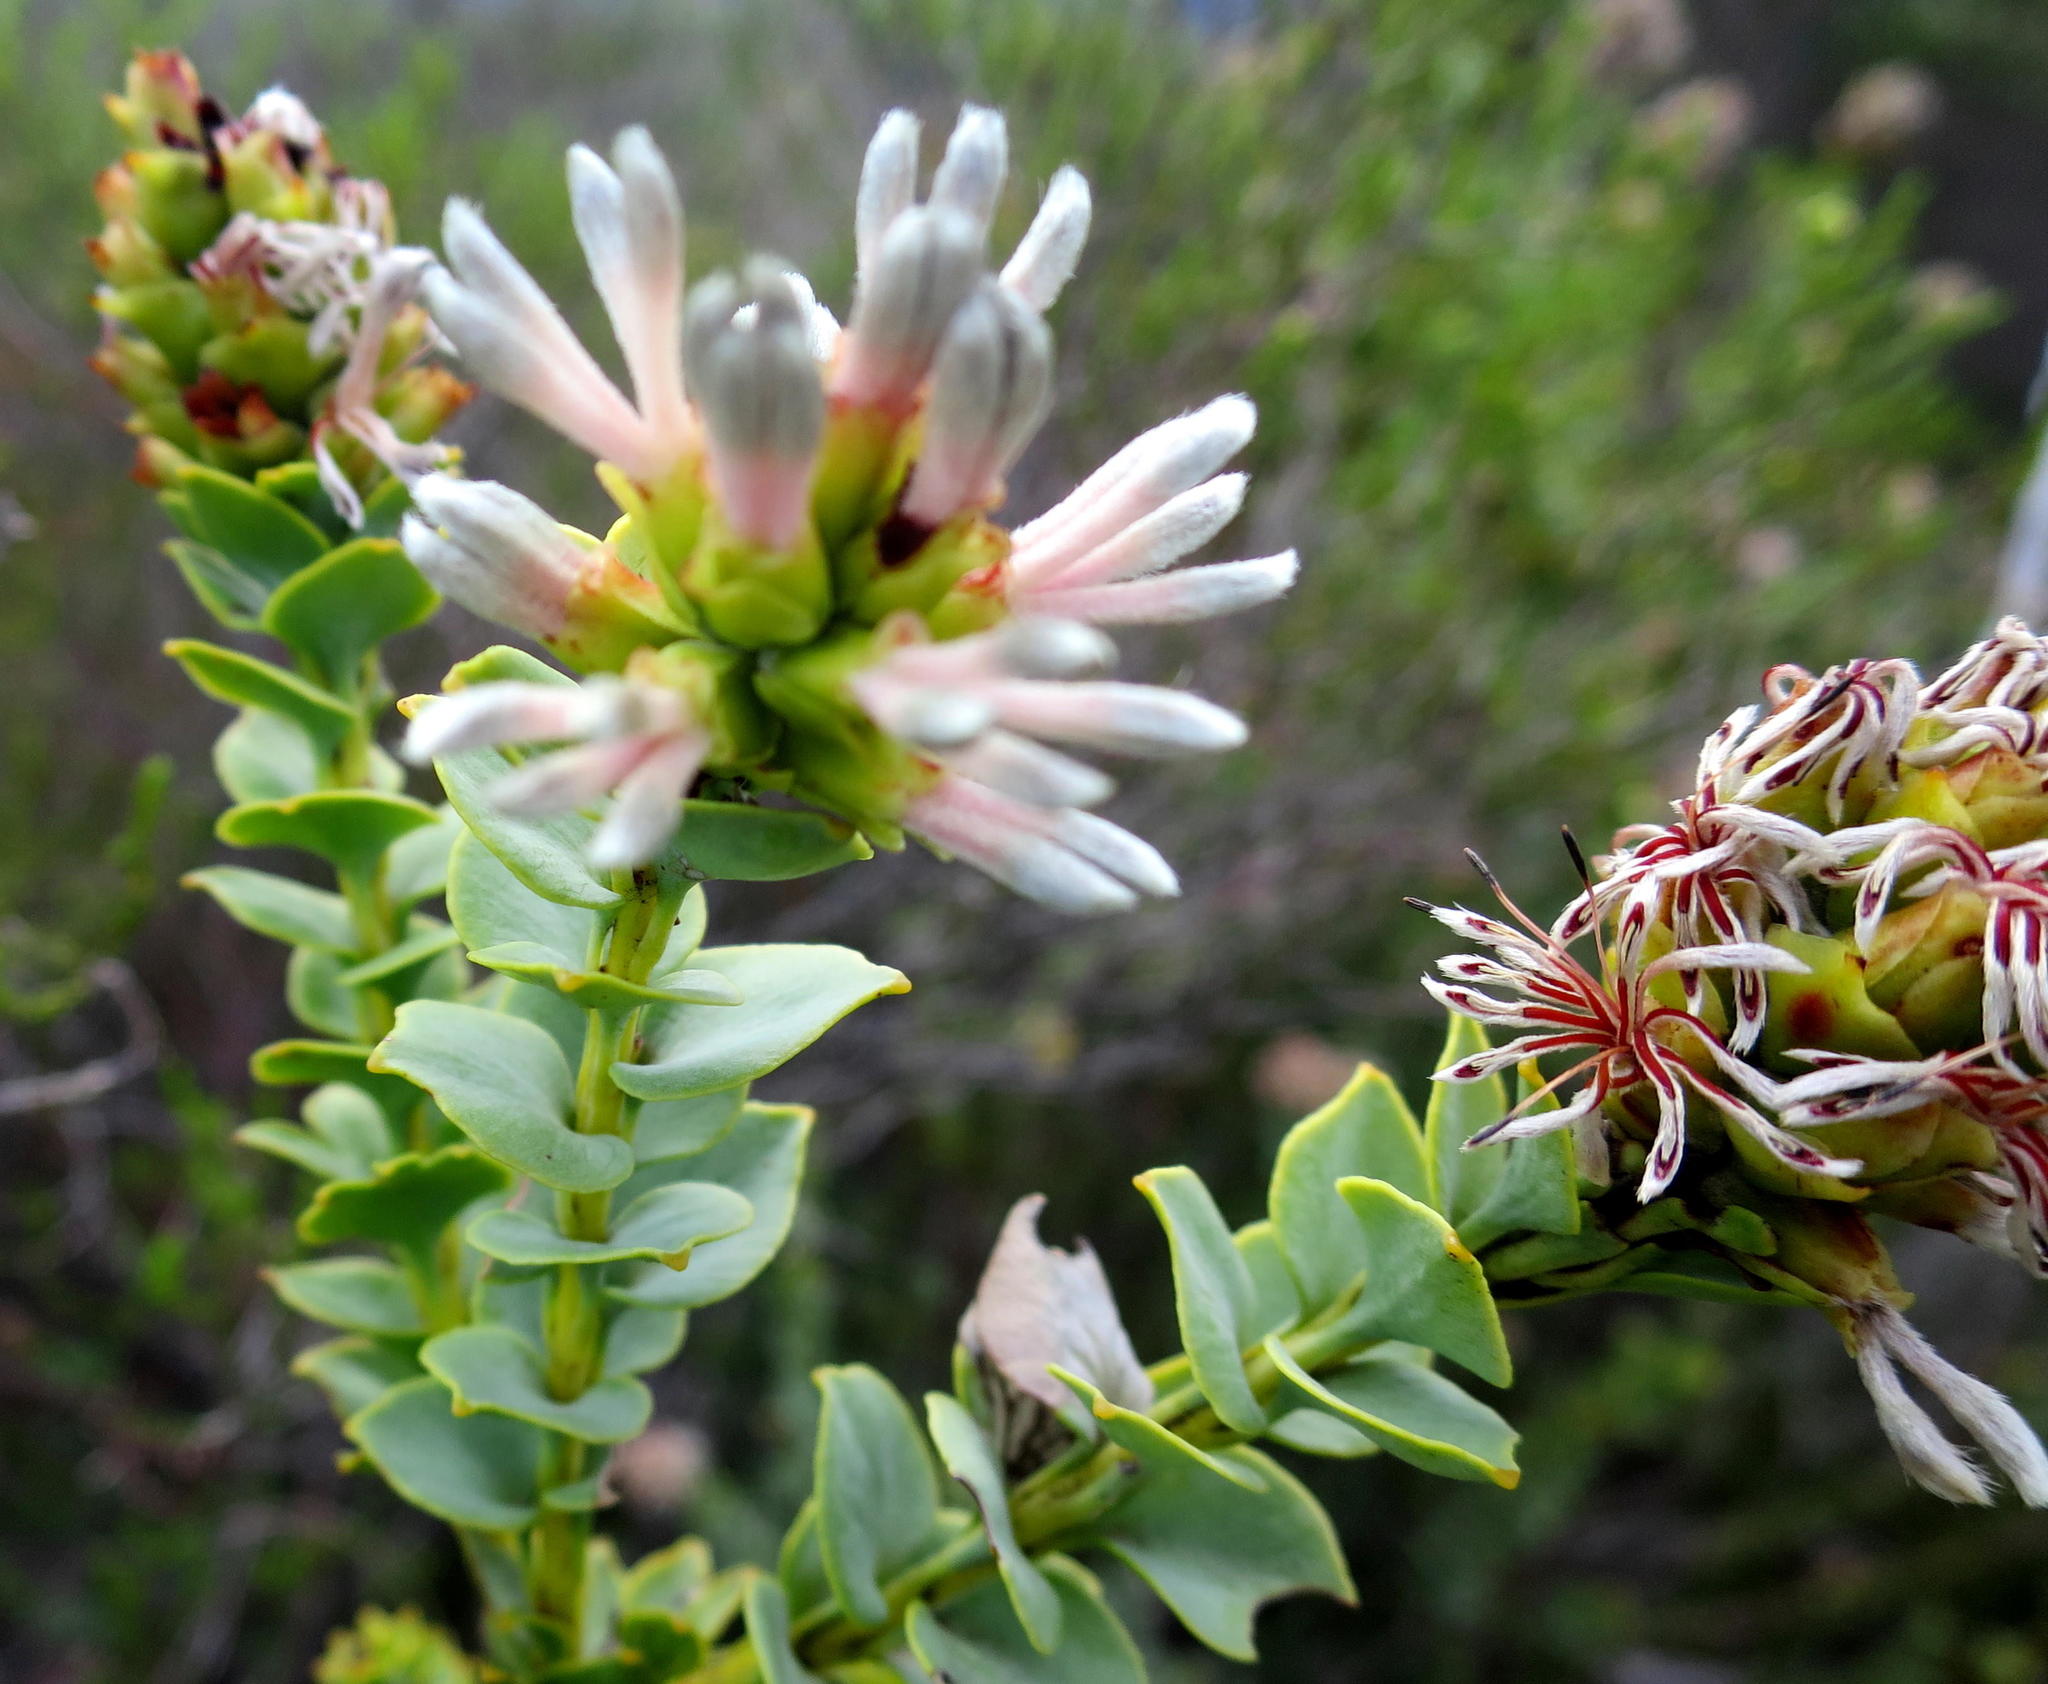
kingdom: Plantae
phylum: Tracheophyta
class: Magnoliopsida
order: Proteales
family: Proteaceae
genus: Paranomus
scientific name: Paranomus roodebergensis
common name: Honey-scented sceptre
